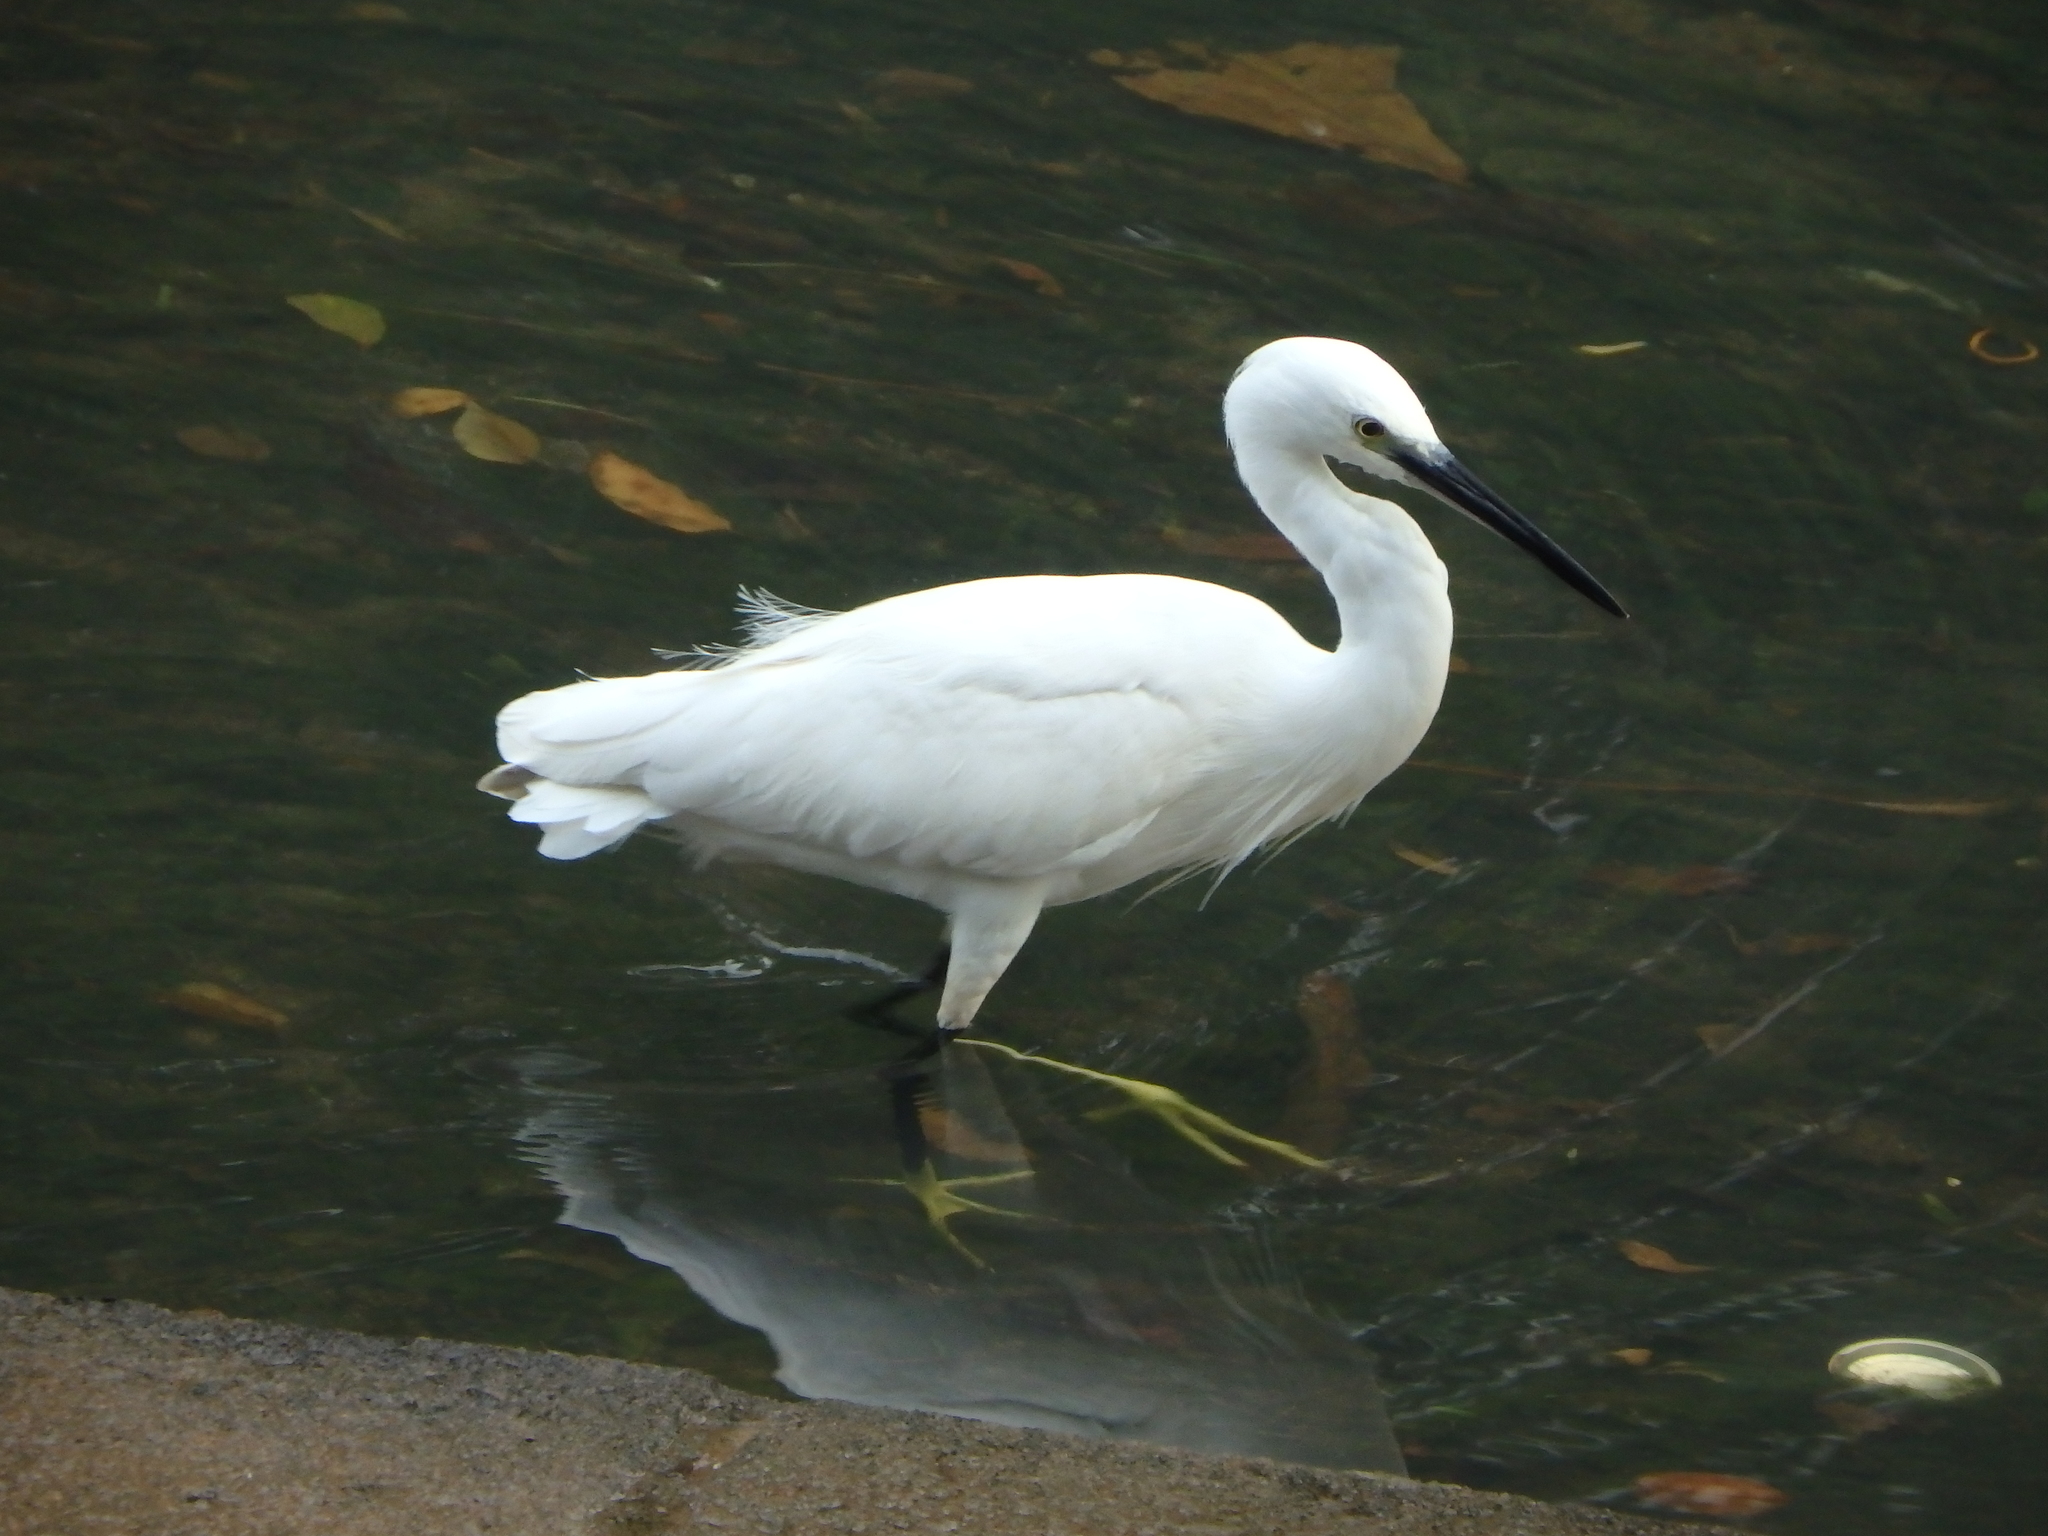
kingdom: Animalia
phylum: Chordata
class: Aves
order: Pelecaniformes
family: Ardeidae
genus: Egretta
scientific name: Egretta garzetta
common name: Little egret
